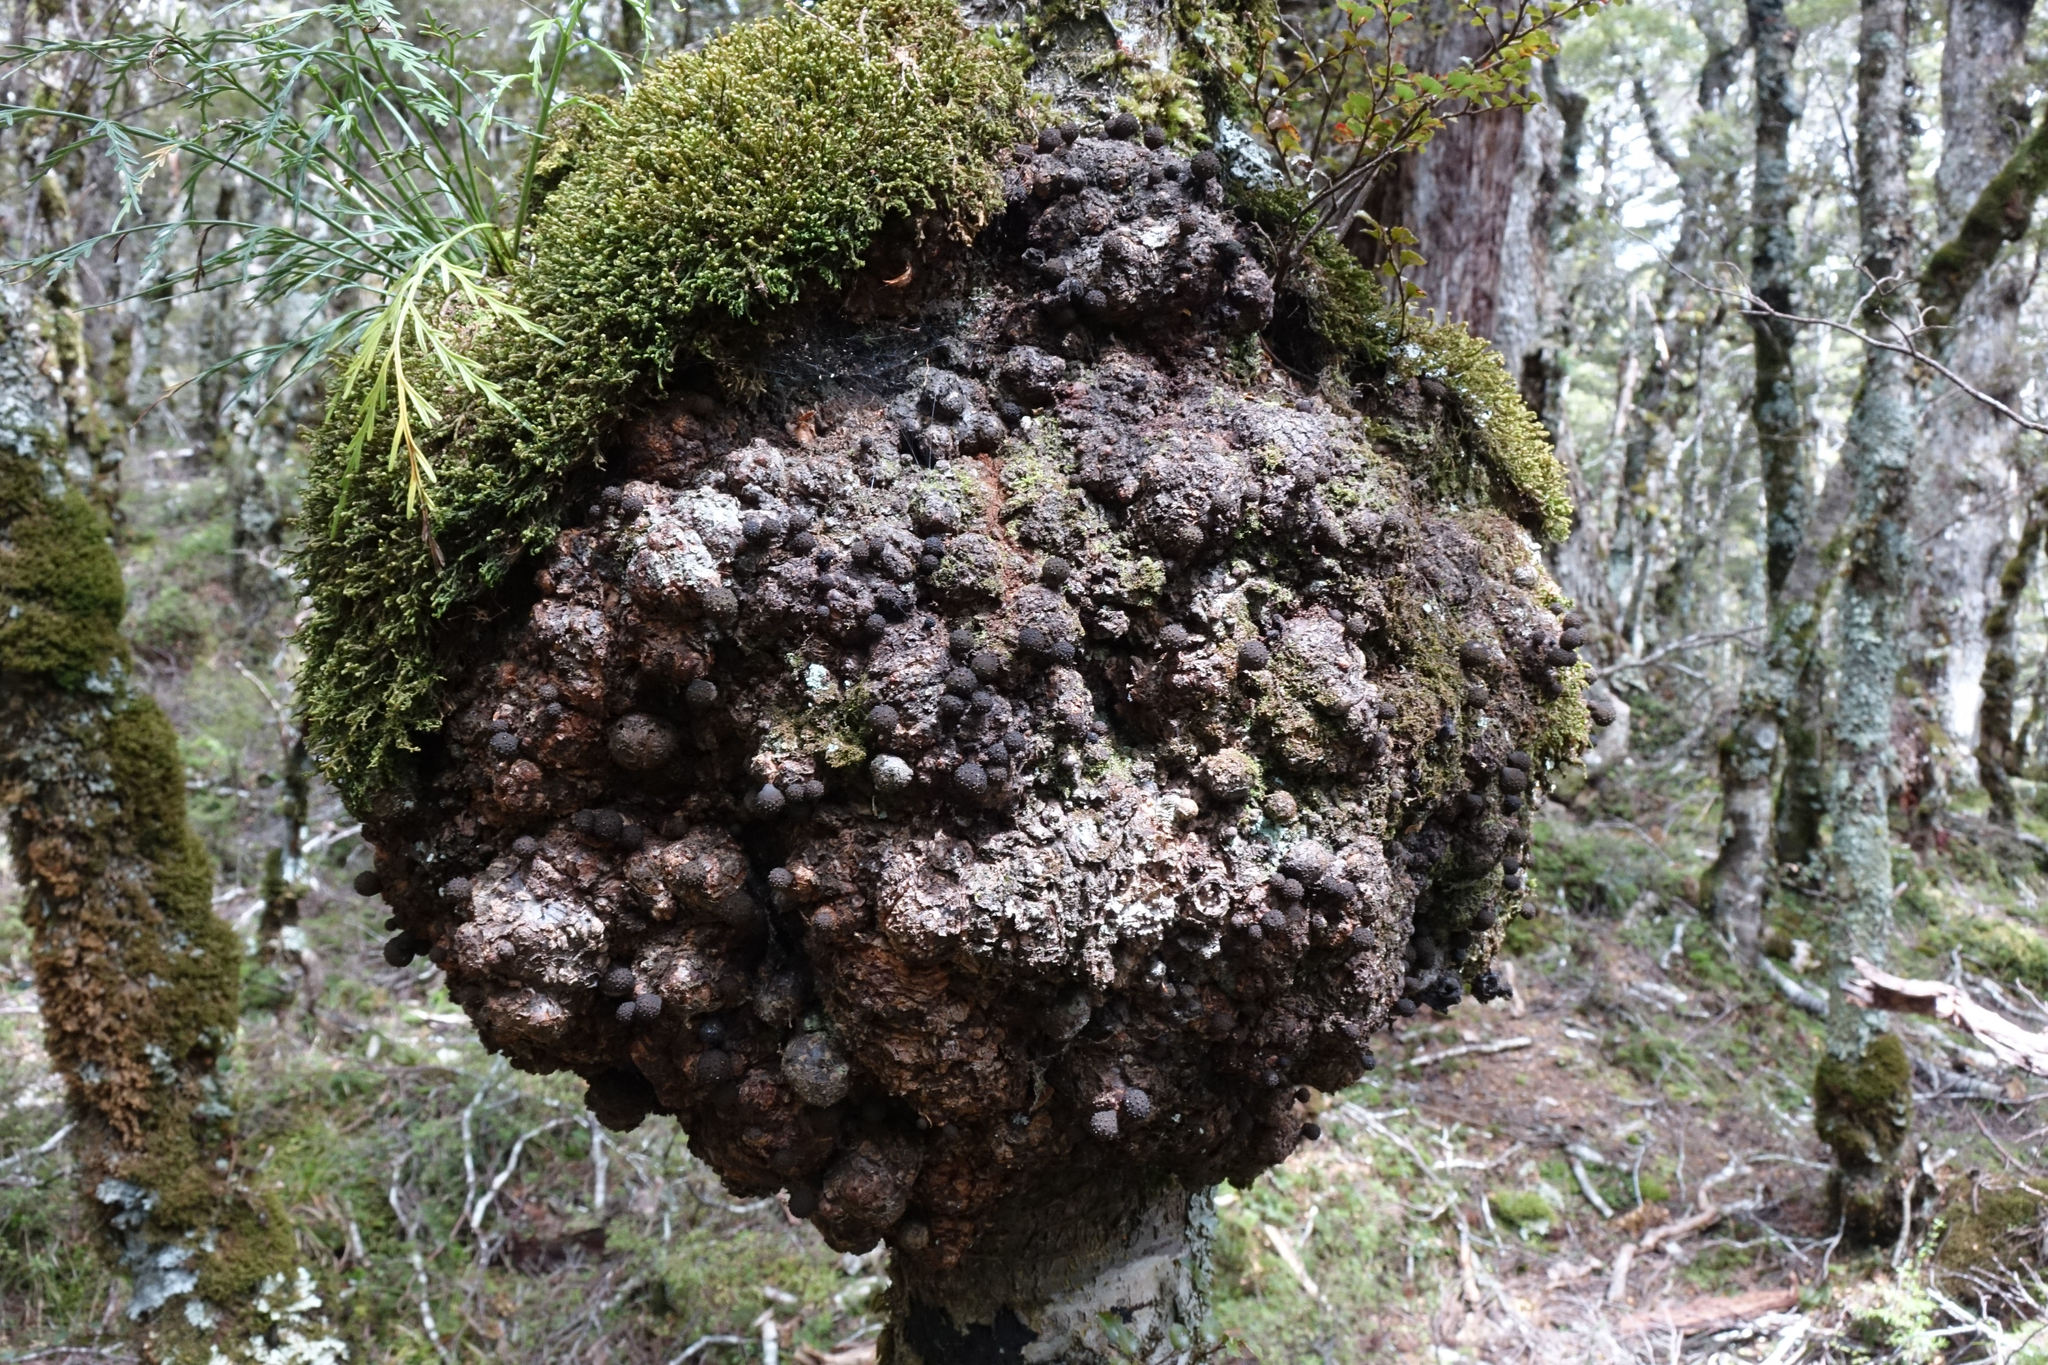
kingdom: Fungi
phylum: Ascomycota
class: Leotiomycetes
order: Cyttariales
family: Cyttariaceae
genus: Cyttaria
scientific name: Cyttaria nigra
